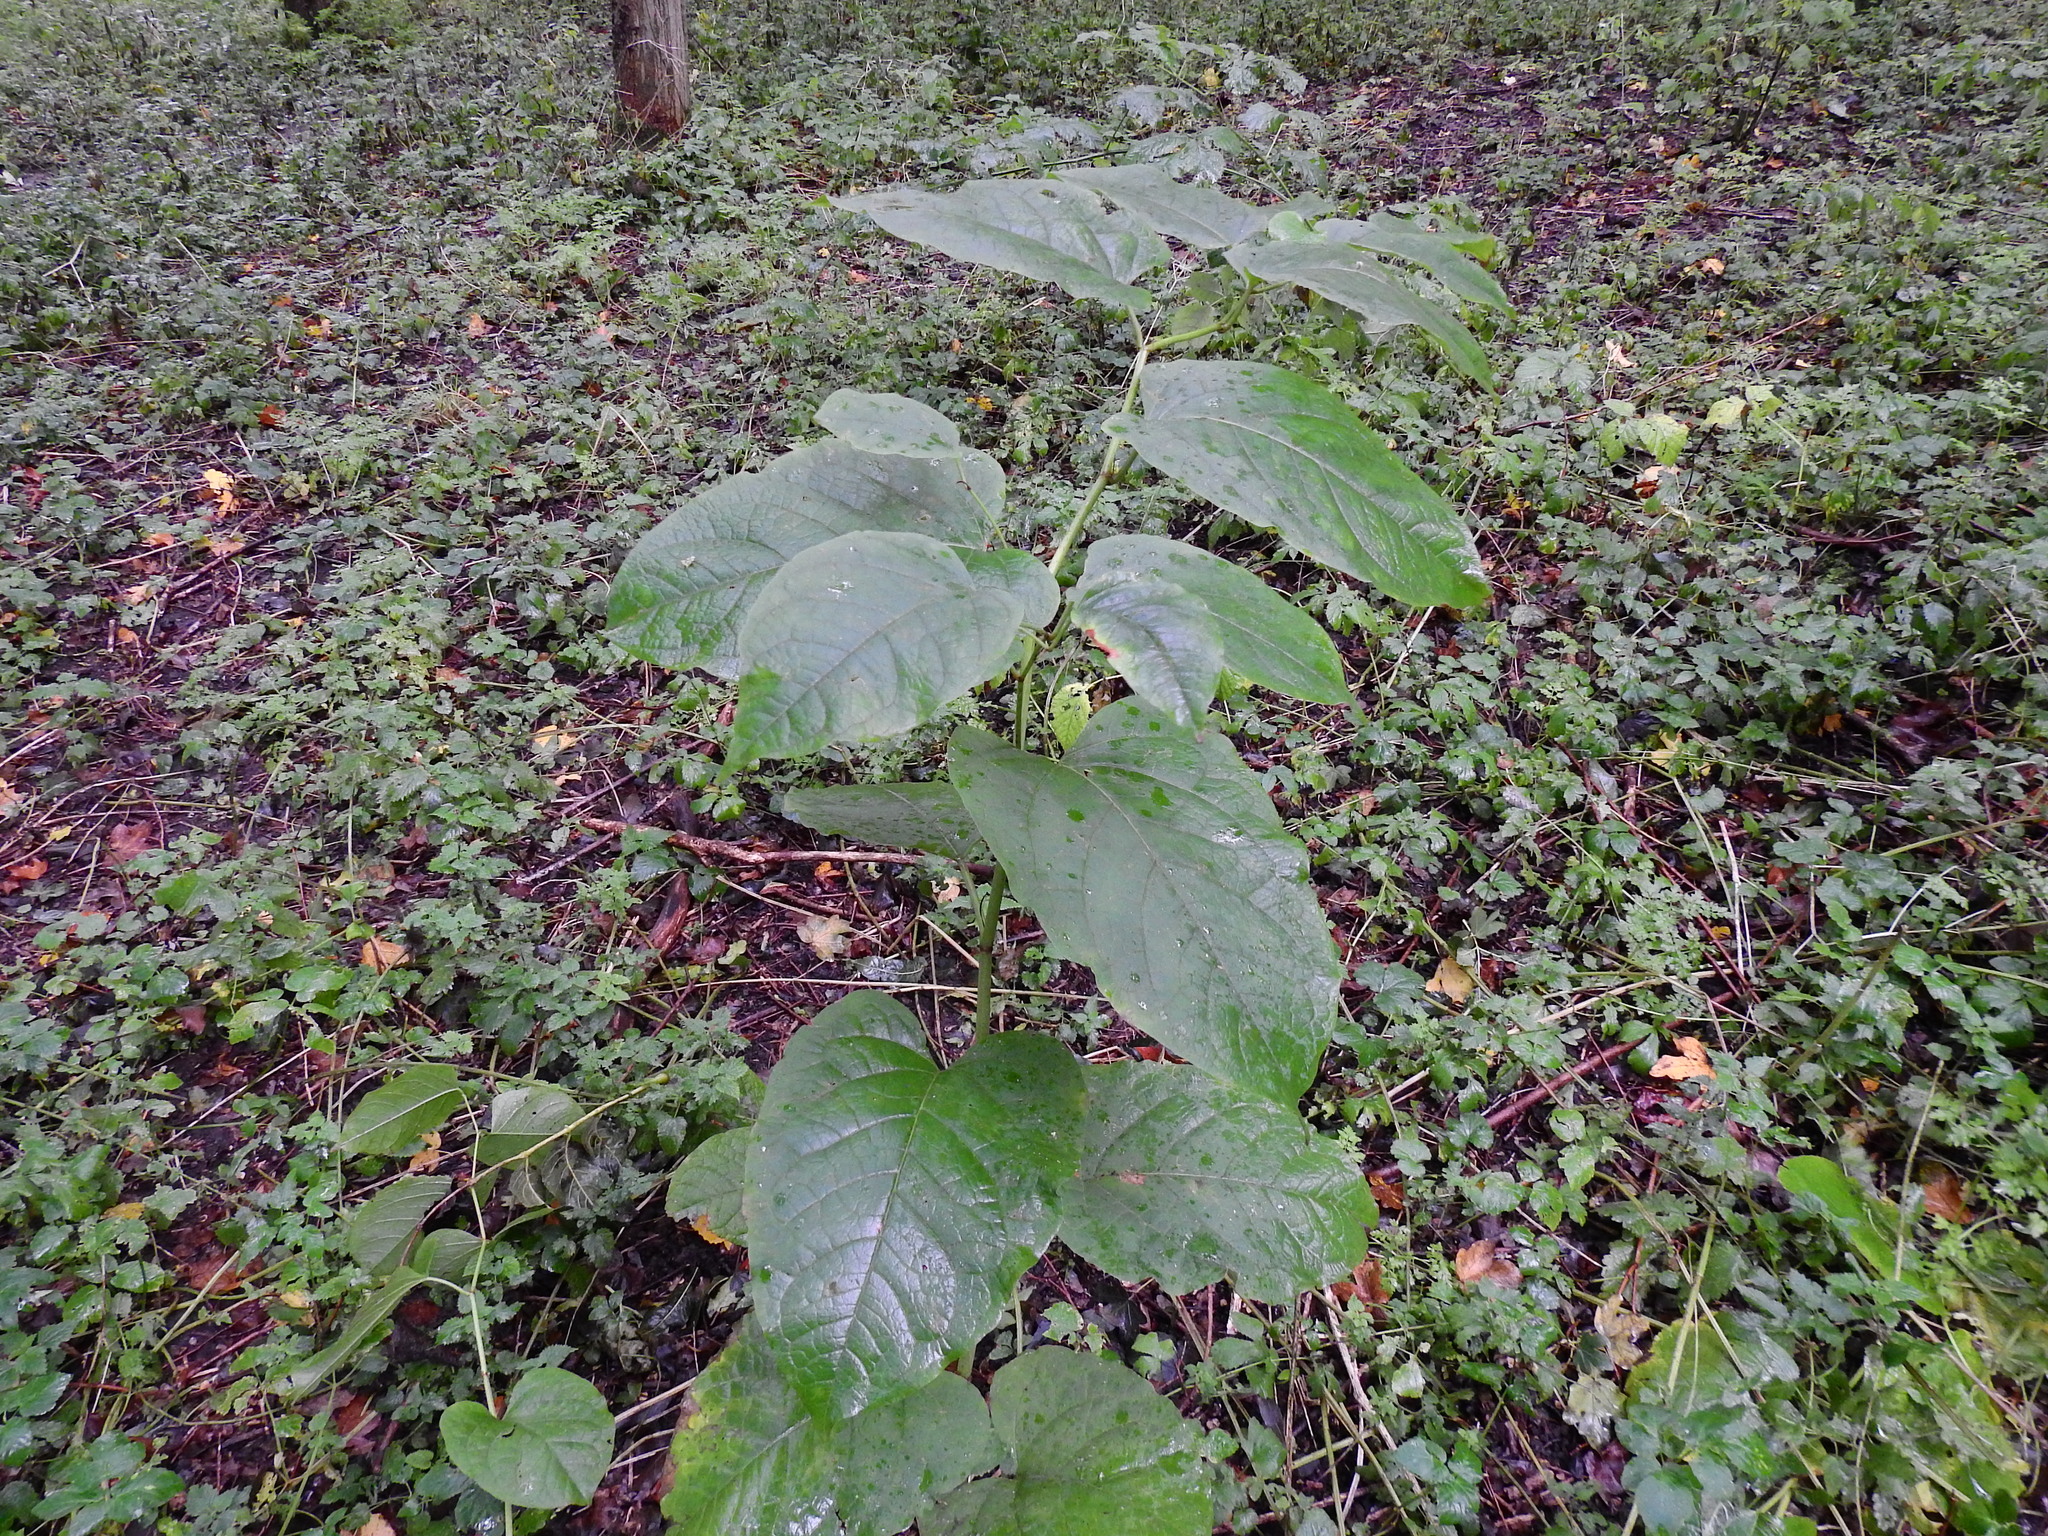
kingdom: Plantae
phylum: Tracheophyta
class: Magnoliopsida
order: Caryophyllales
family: Polygonaceae
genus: Reynoutria
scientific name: Reynoutria sachalinensis
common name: Giant knotweed
